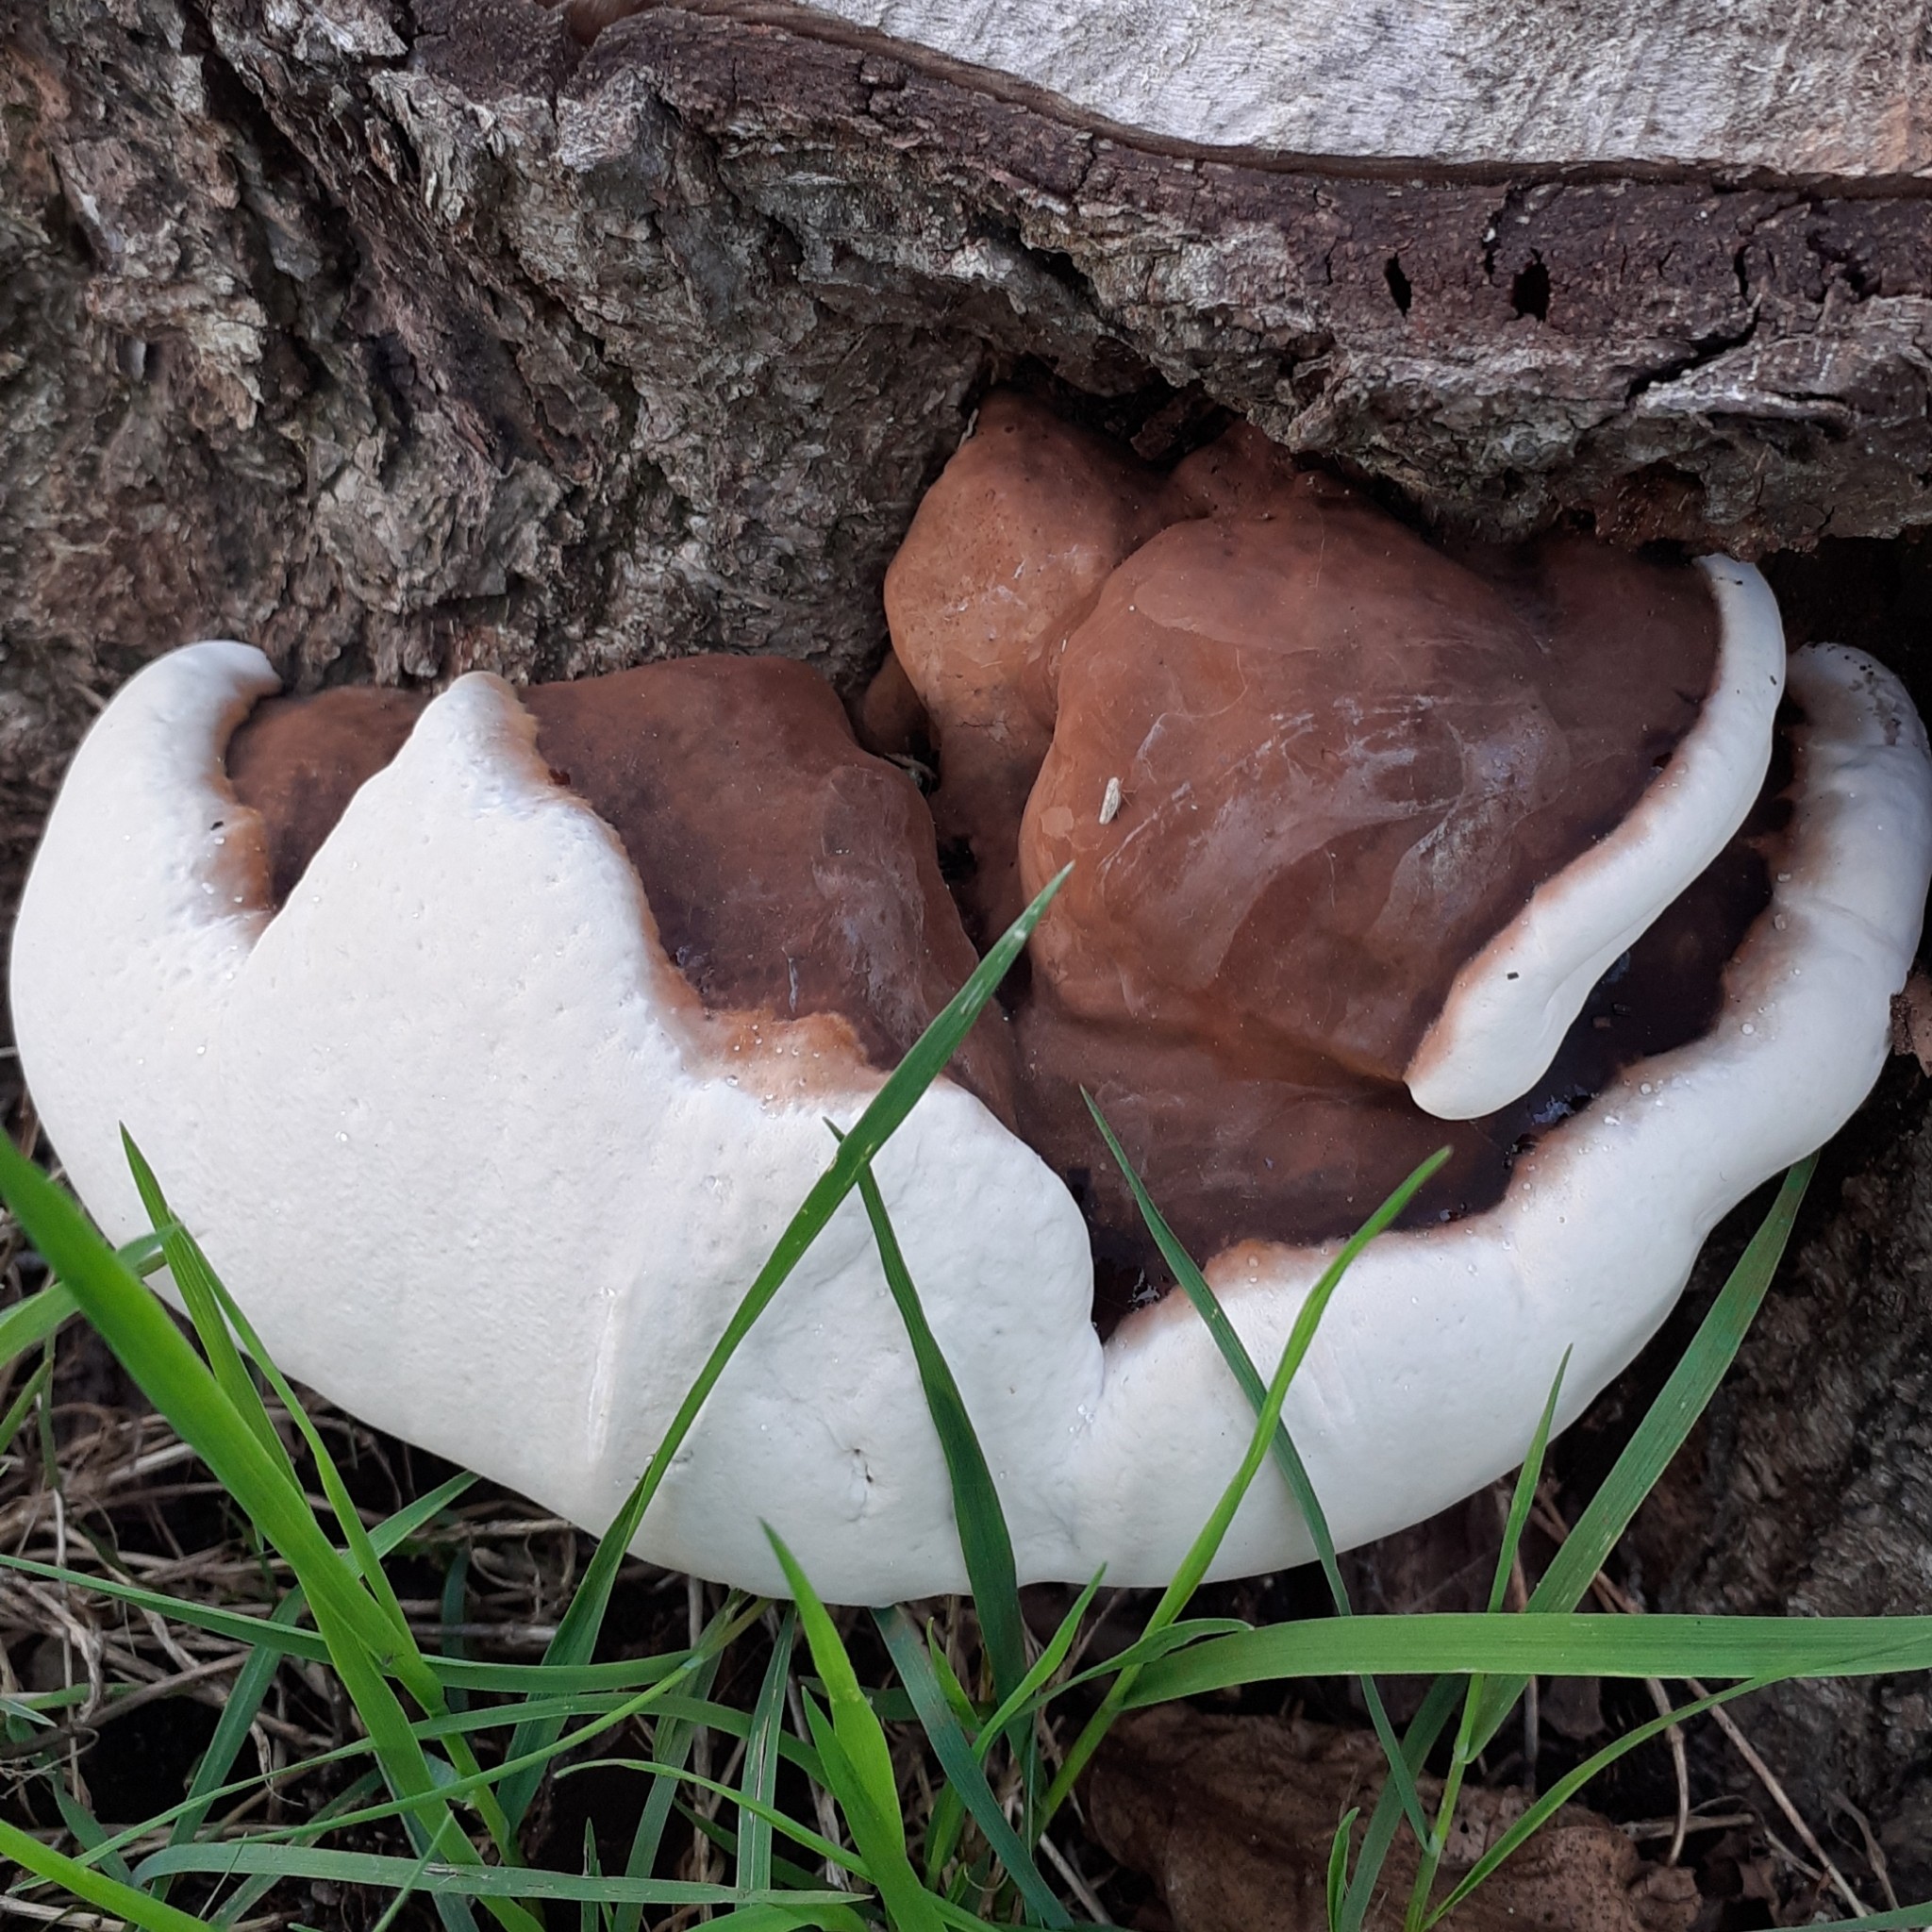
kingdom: Fungi
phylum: Basidiomycota
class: Agaricomycetes
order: Polyporales
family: Polyporaceae
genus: Ganoderma
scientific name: Ganoderma applanatum
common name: Artist's bracket
